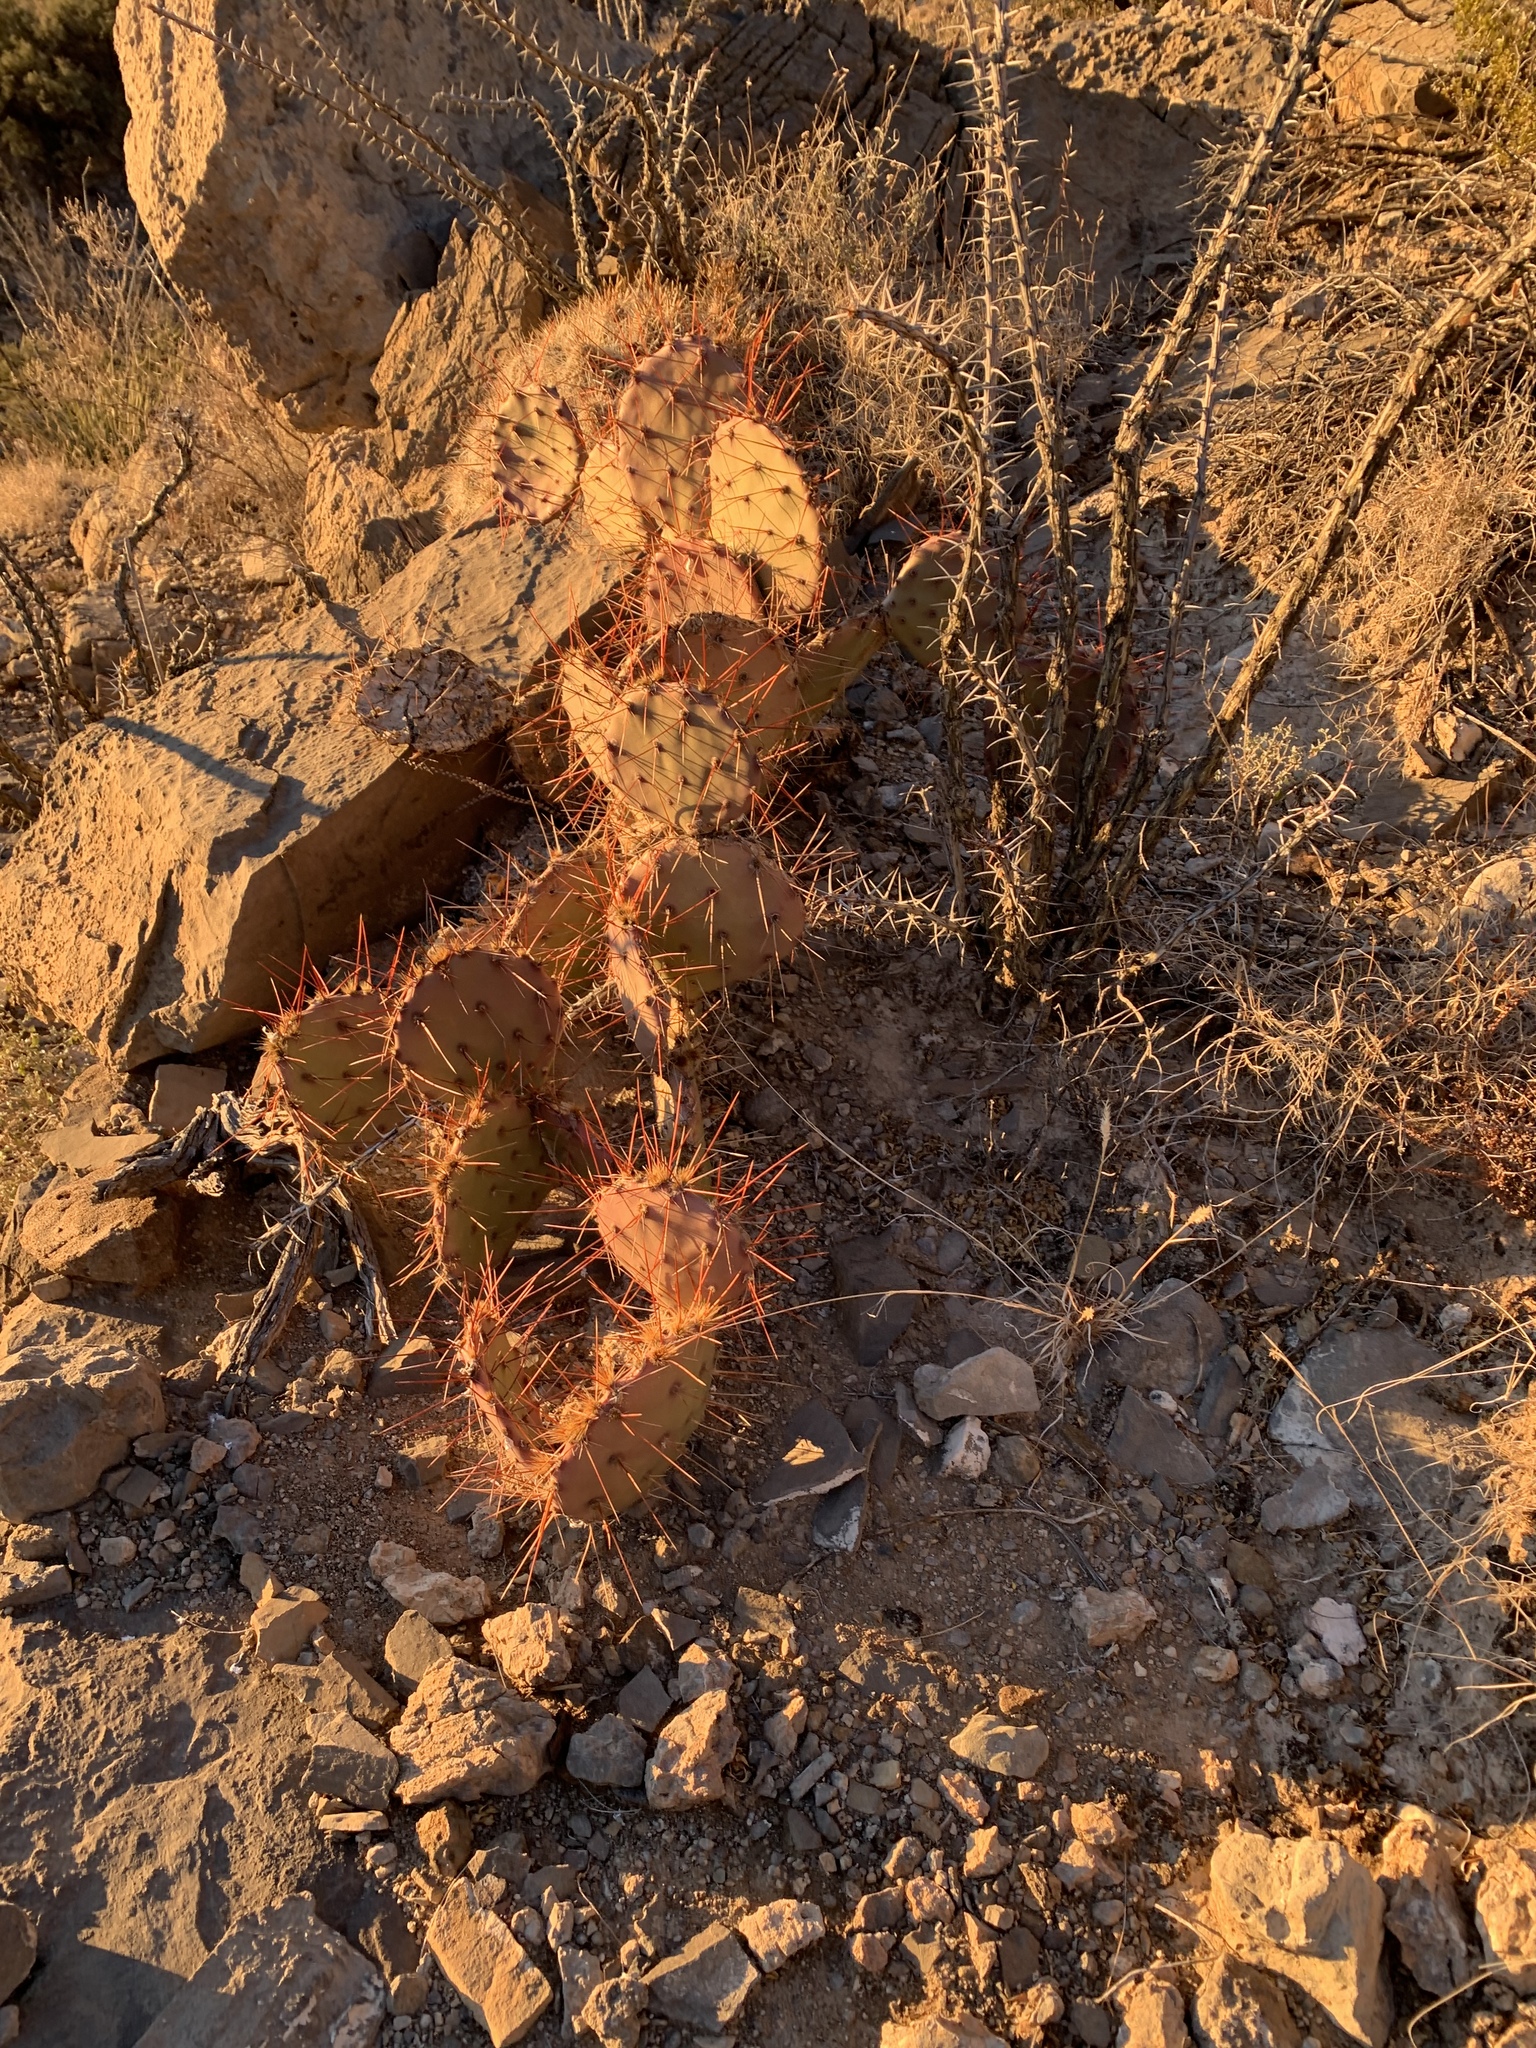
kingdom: Plantae
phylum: Tracheophyta
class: Magnoliopsida
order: Caryophyllales
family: Cactaceae
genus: Opuntia
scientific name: Opuntia macrocentra
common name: Purple prickly-pear
